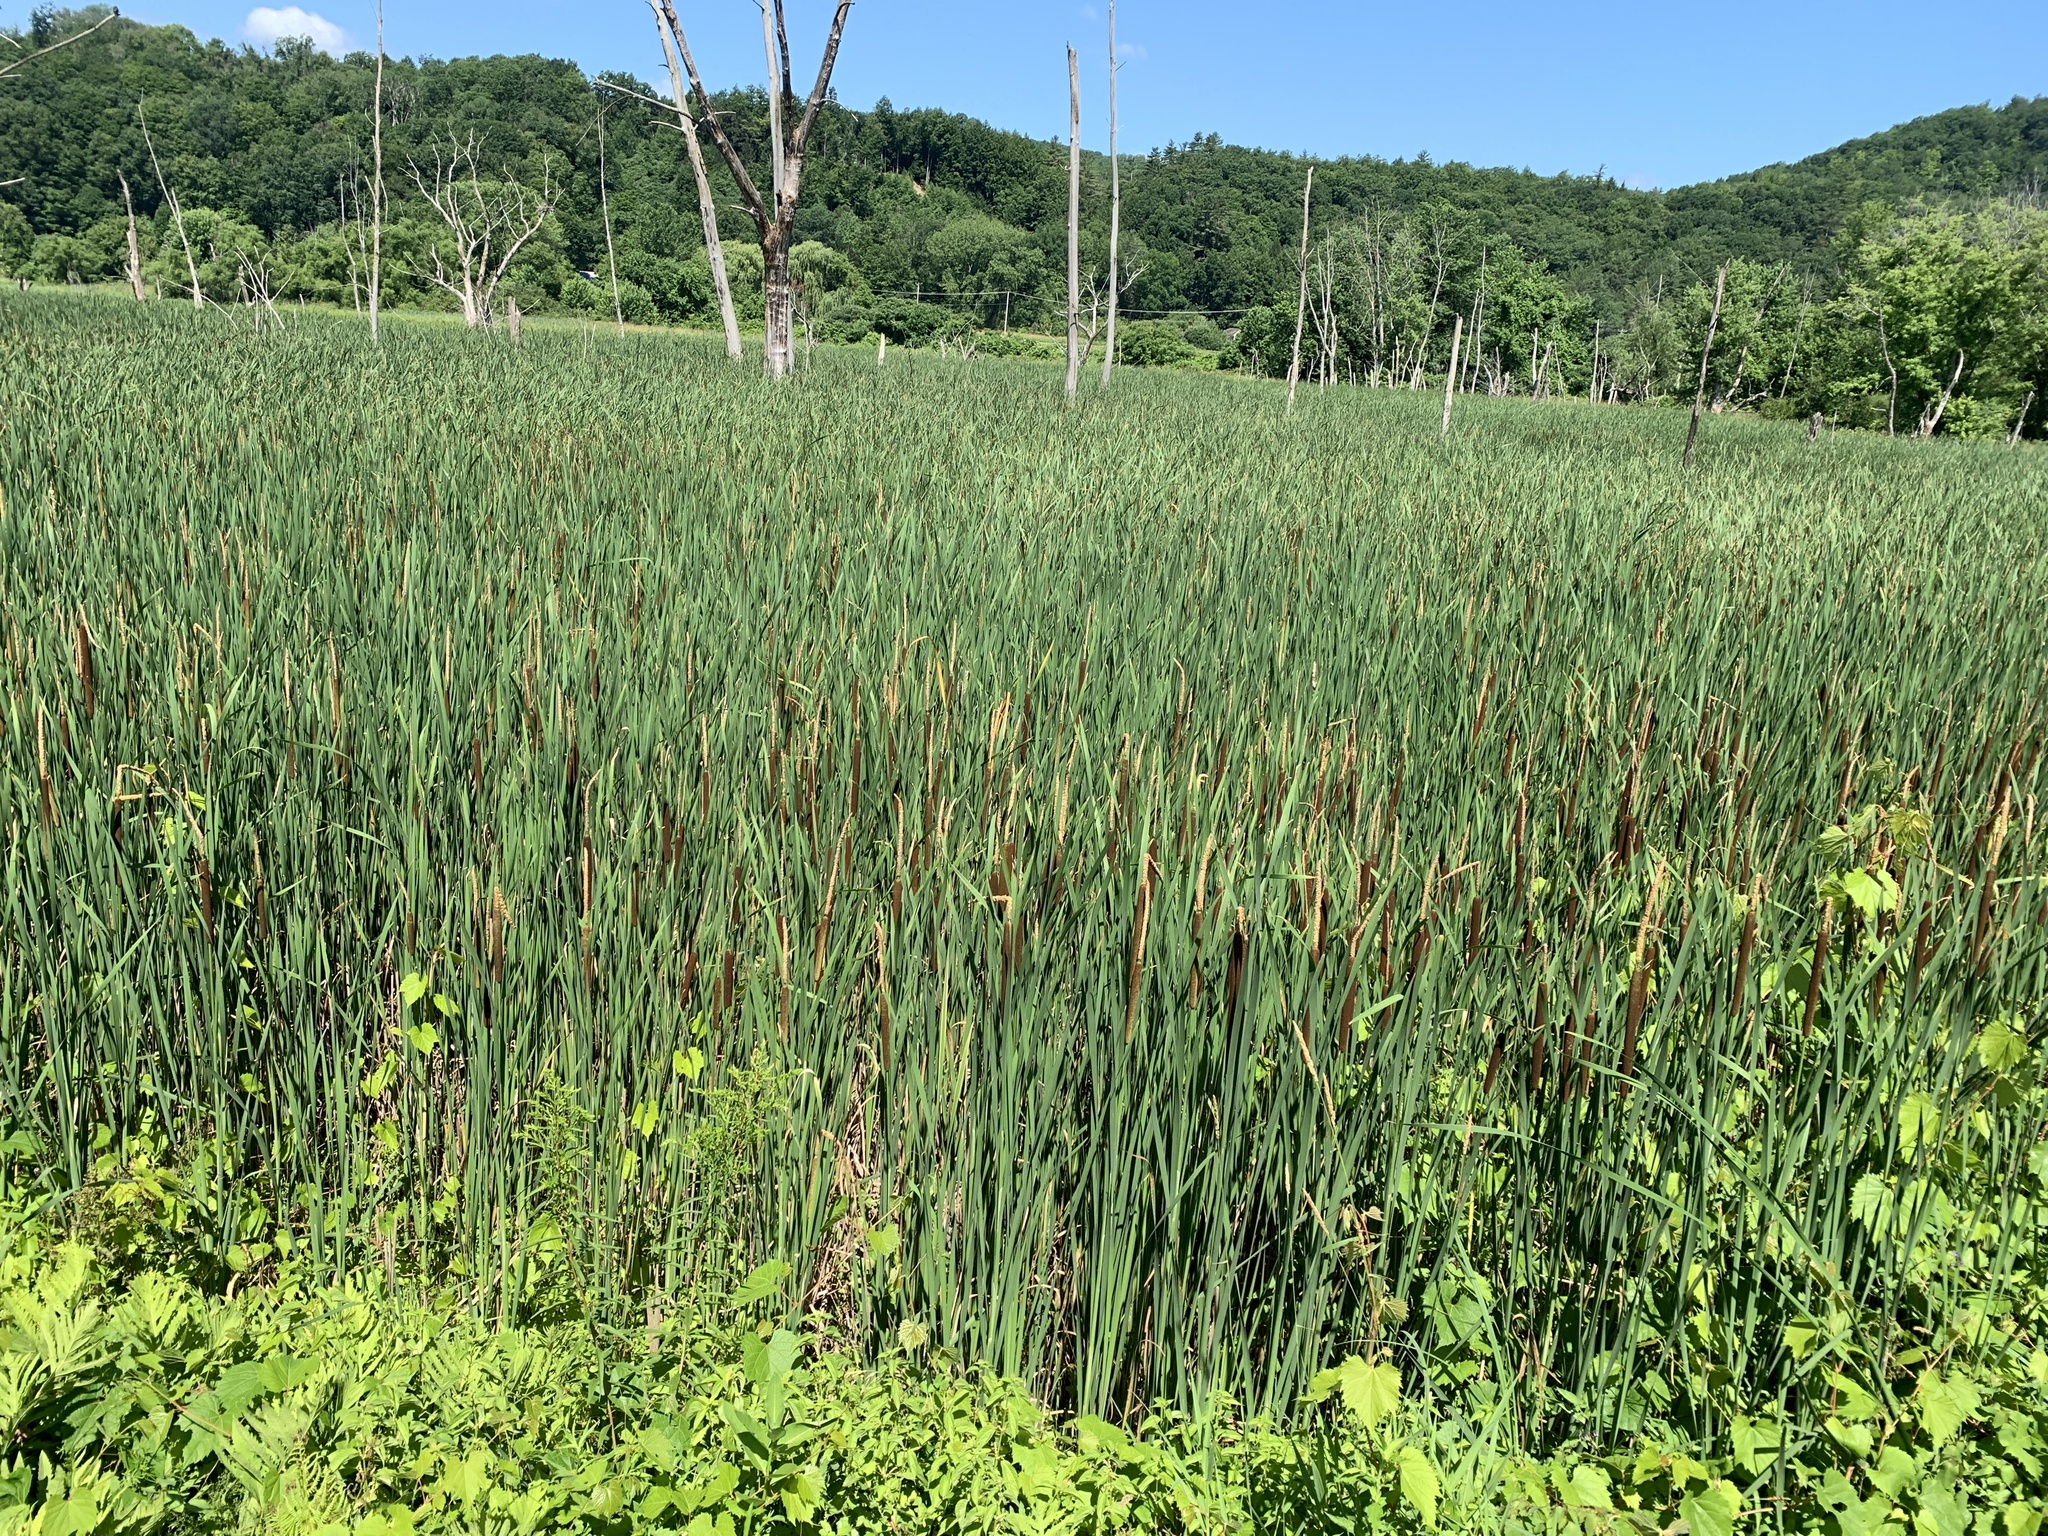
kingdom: Plantae
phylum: Tracheophyta
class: Liliopsida
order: Poales
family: Typhaceae
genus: Typha
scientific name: Typha glauca
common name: Blue cattail
